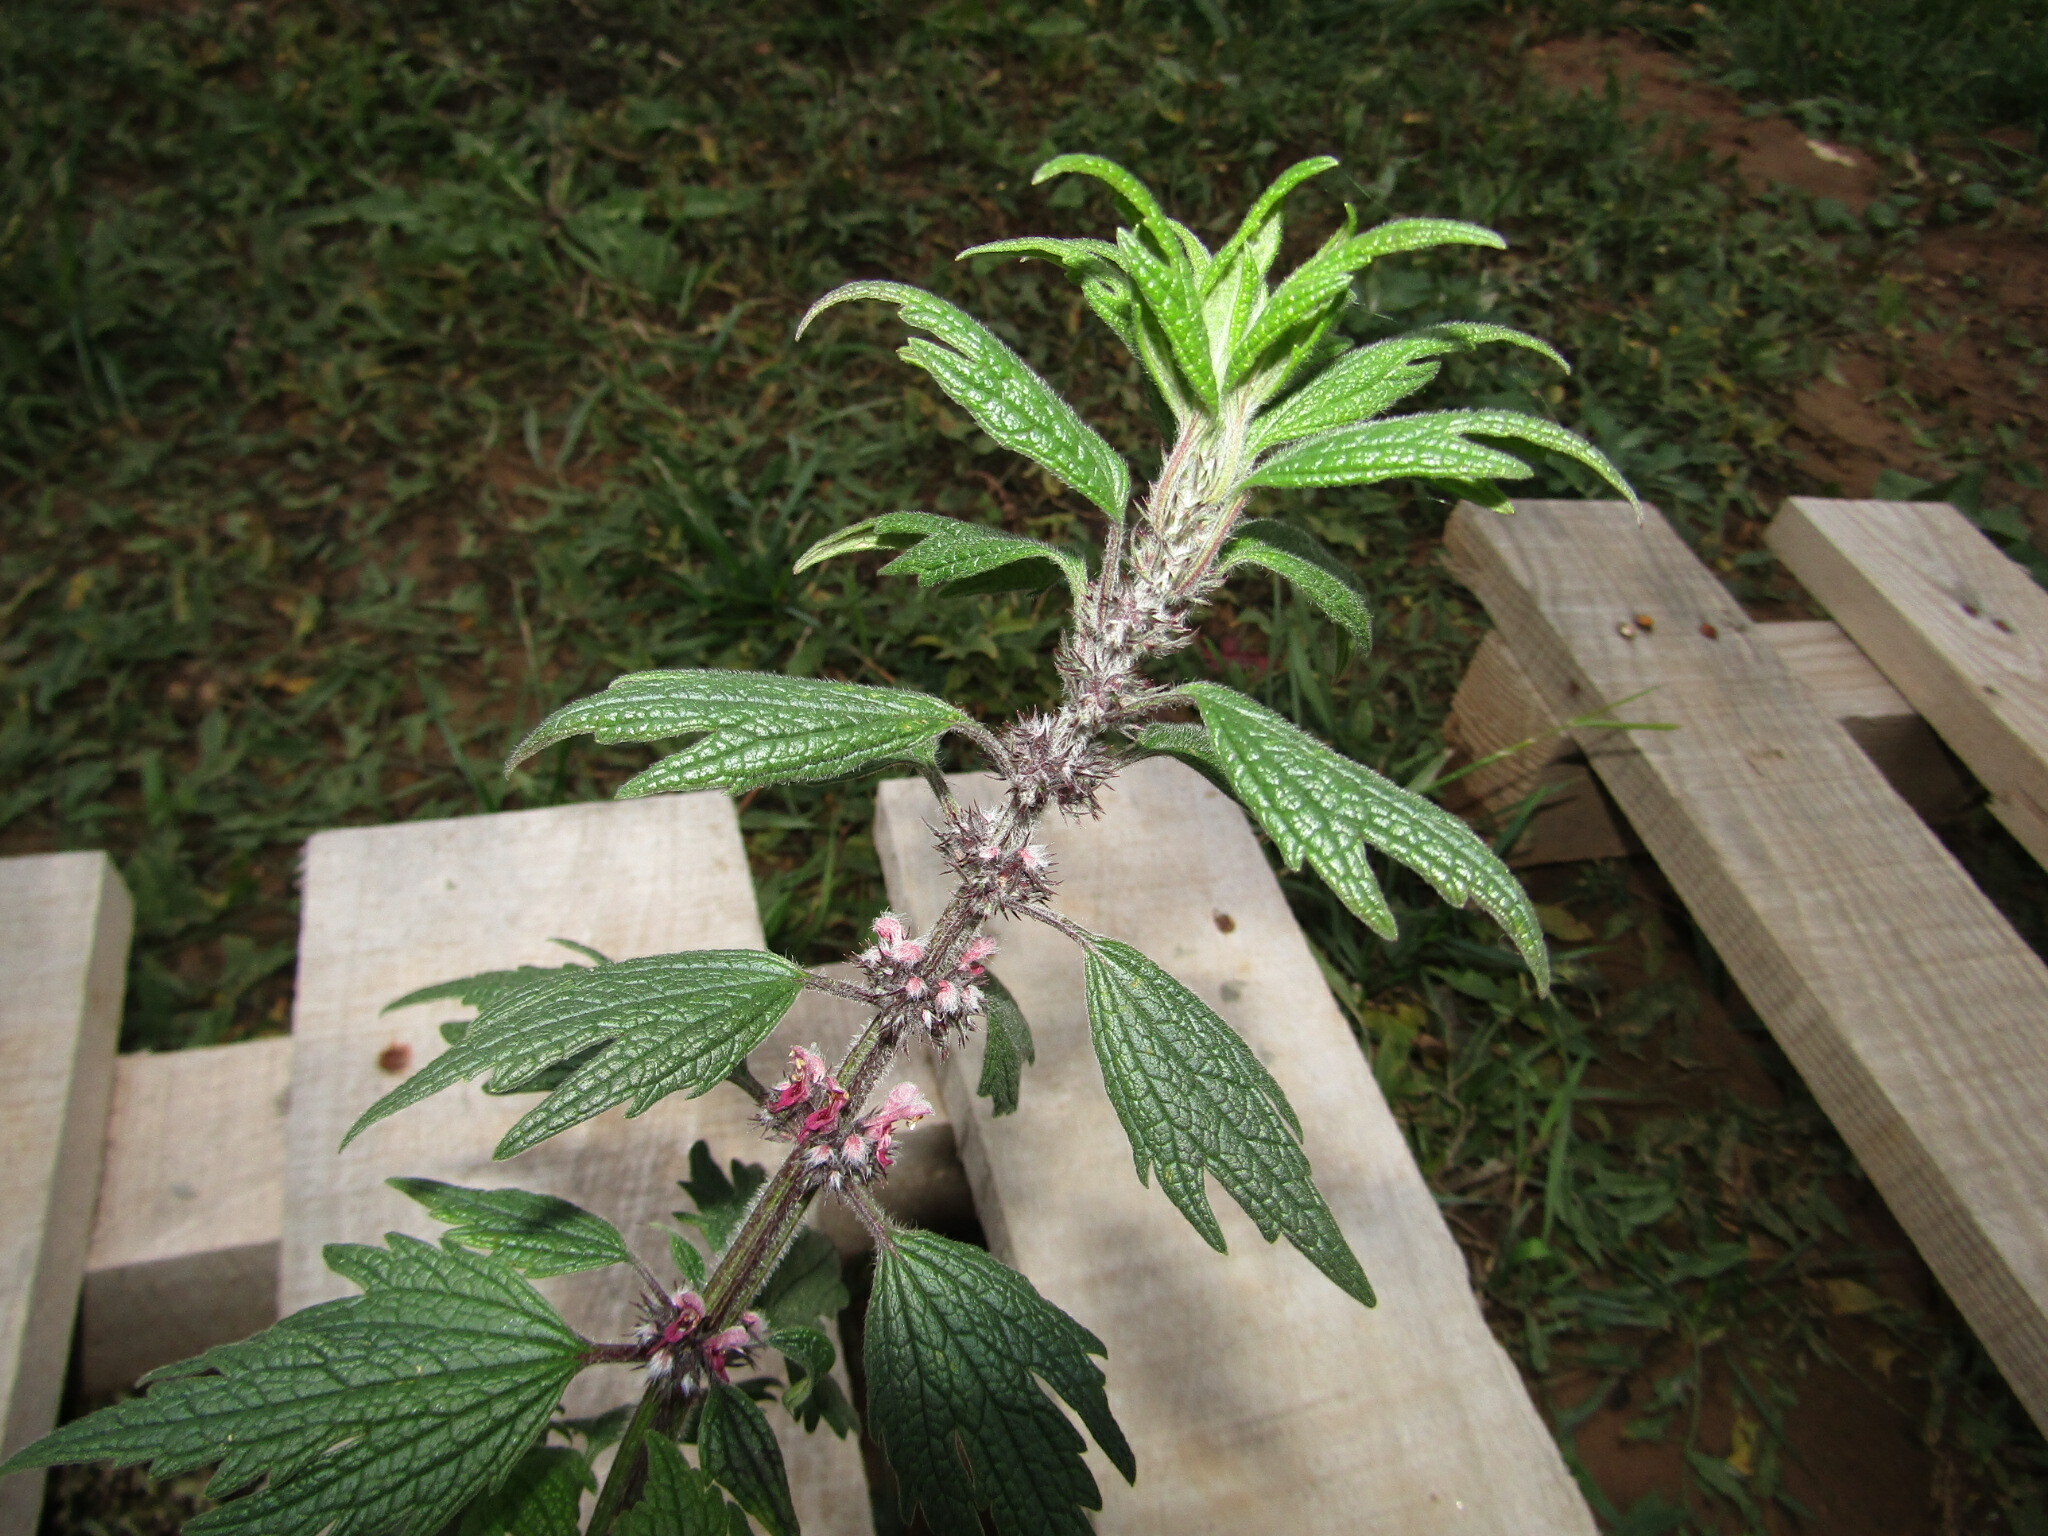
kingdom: Plantae
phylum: Tracheophyta
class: Magnoliopsida
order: Lamiales
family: Lamiaceae
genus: Leonurus
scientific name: Leonurus quinquelobatus
